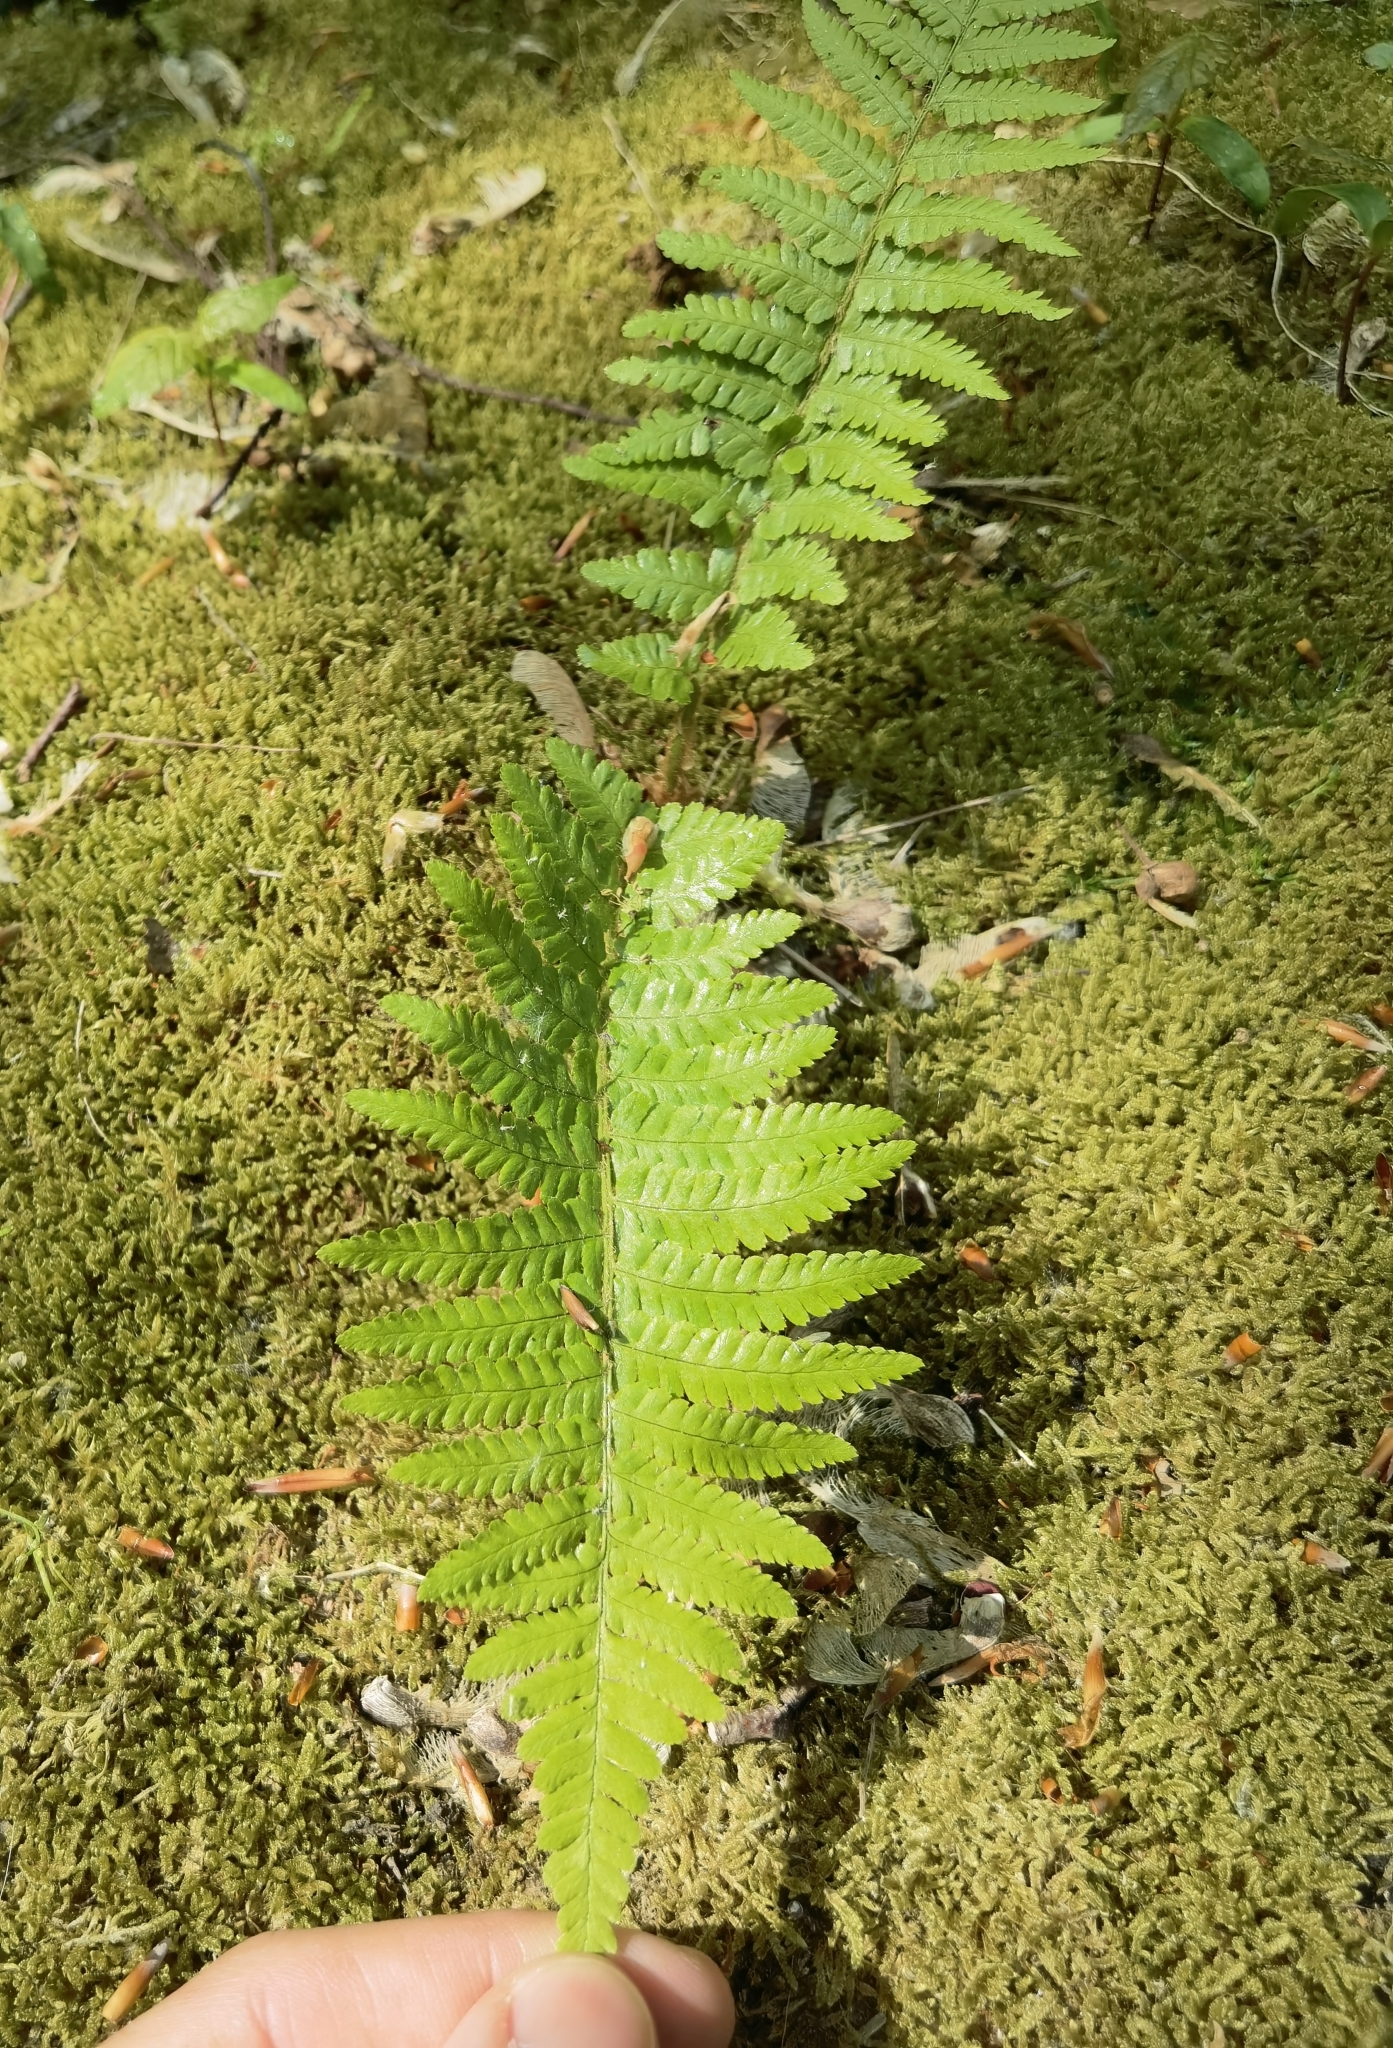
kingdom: Plantae
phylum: Tracheophyta
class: Polypodiopsida
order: Polypodiales
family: Dryopteridaceae
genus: Dryopteris
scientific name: Dryopteris filix-mas
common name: Male fern
